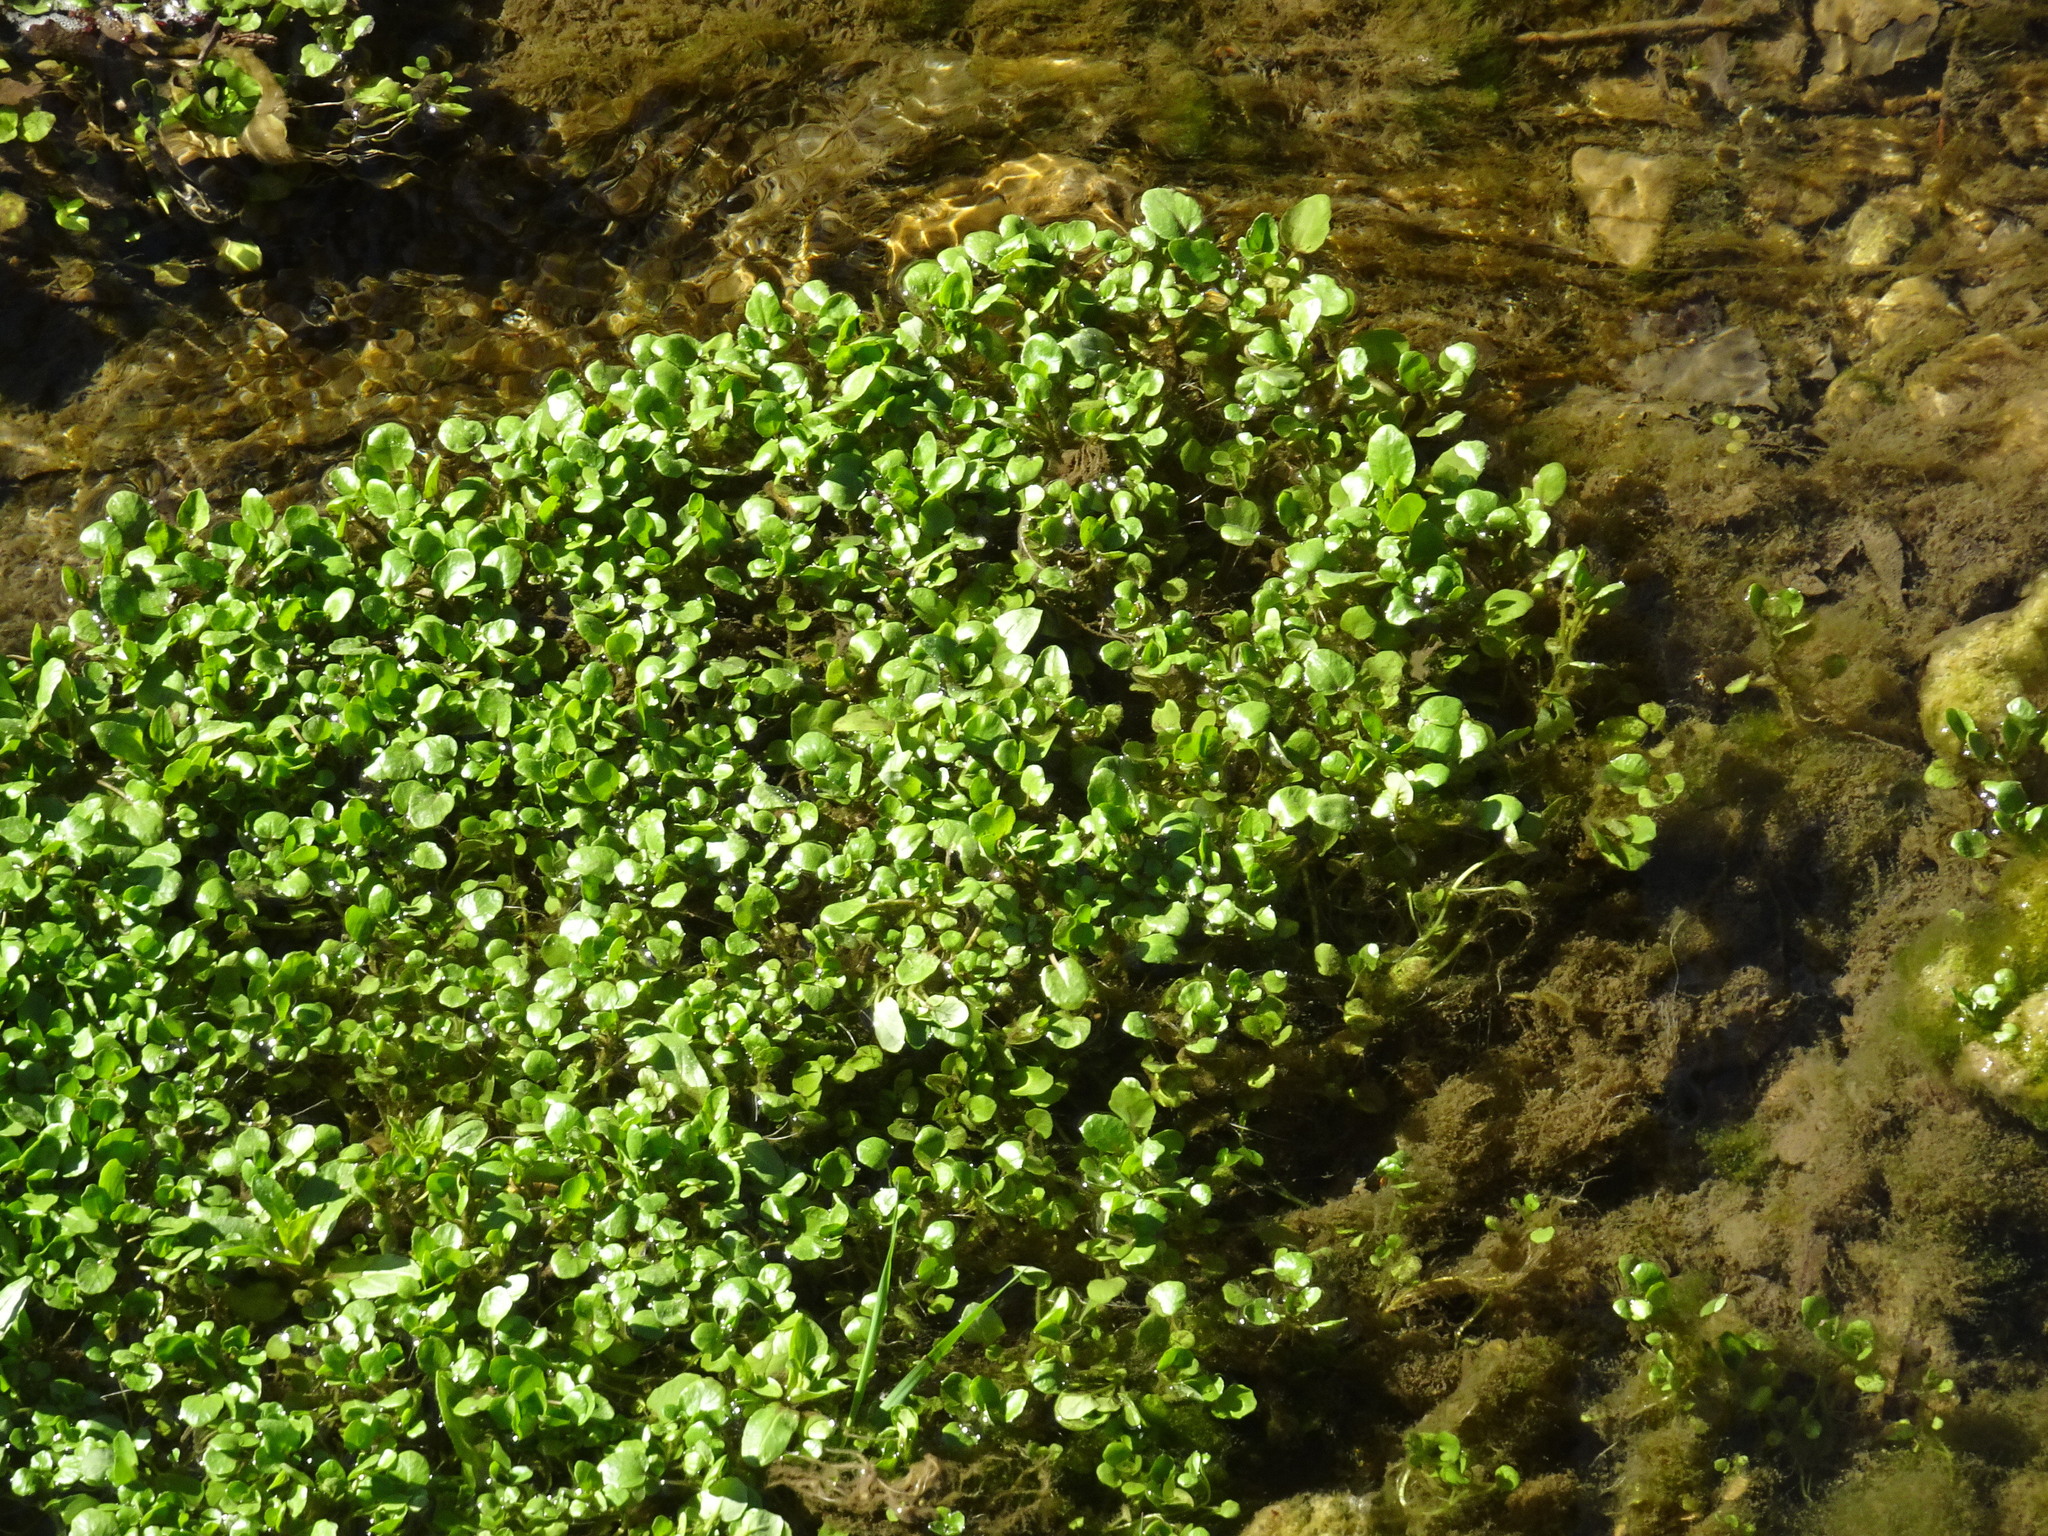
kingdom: Plantae
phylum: Tracheophyta
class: Magnoliopsida
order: Brassicales
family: Brassicaceae
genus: Nasturtium
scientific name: Nasturtium officinale
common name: Watercress
